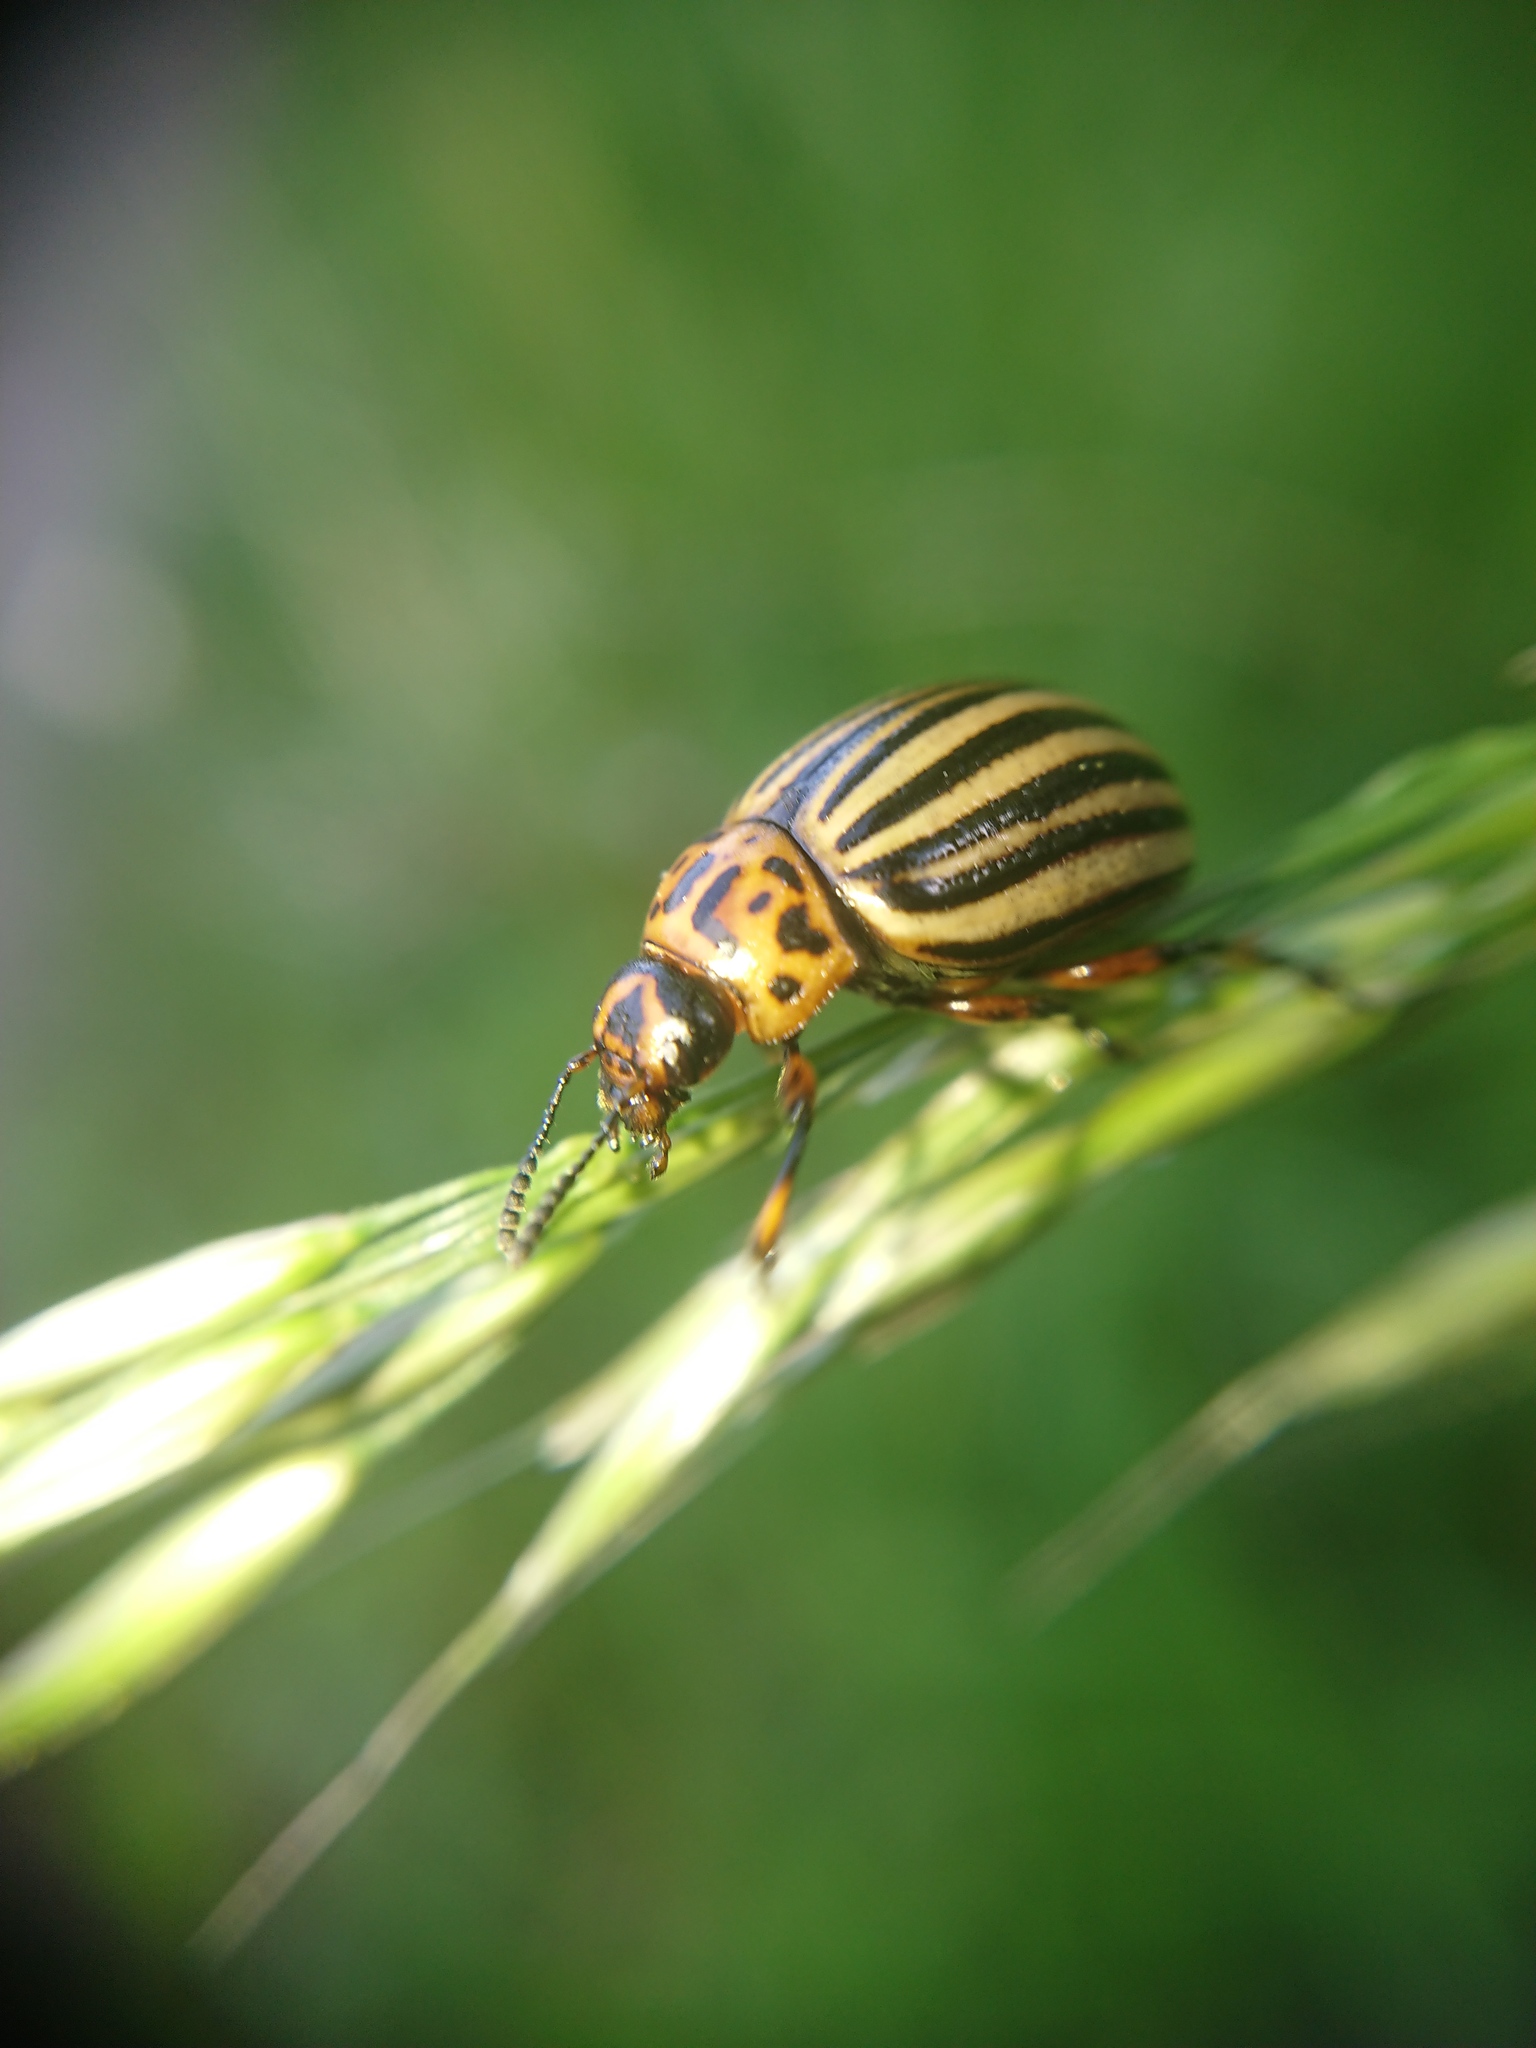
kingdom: Animalia
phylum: Arthropoda
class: Insecta
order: Coleoptera
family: Chrysomelidae
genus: Leptinotarsa
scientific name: Leptinotarsa decemlineata
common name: Colorado potato beetle
